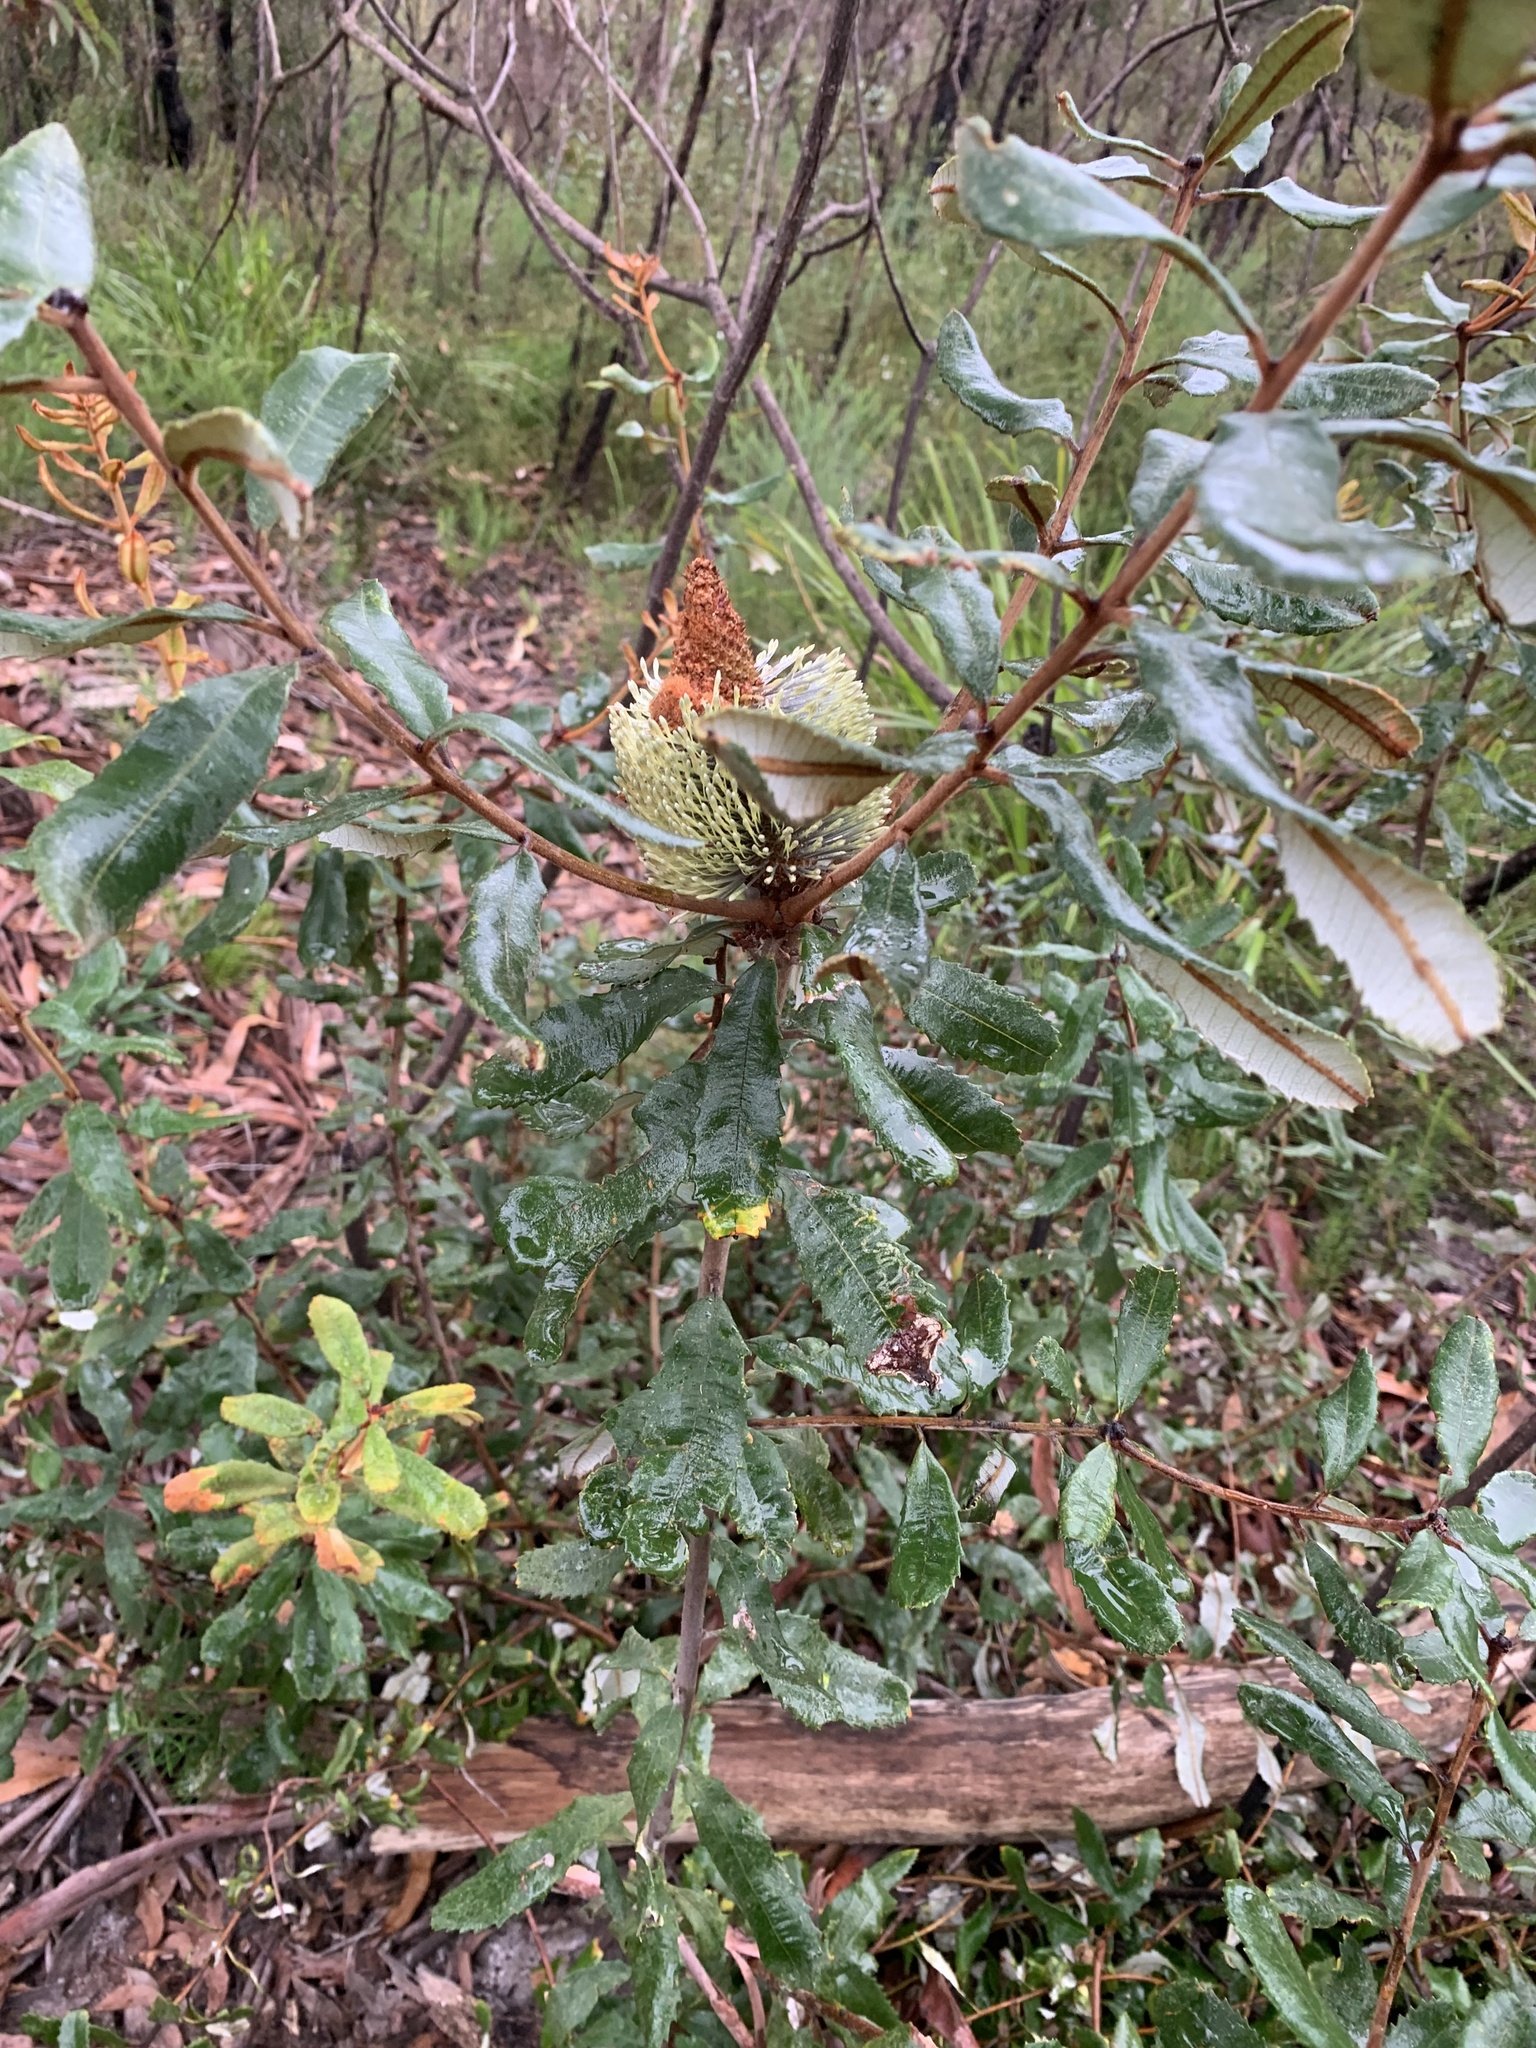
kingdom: Plantae
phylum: Tracheophyta
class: Magnoliopsida
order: Proteales
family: Proteaceae
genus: Banksia
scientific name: Banksia oblongifolia
